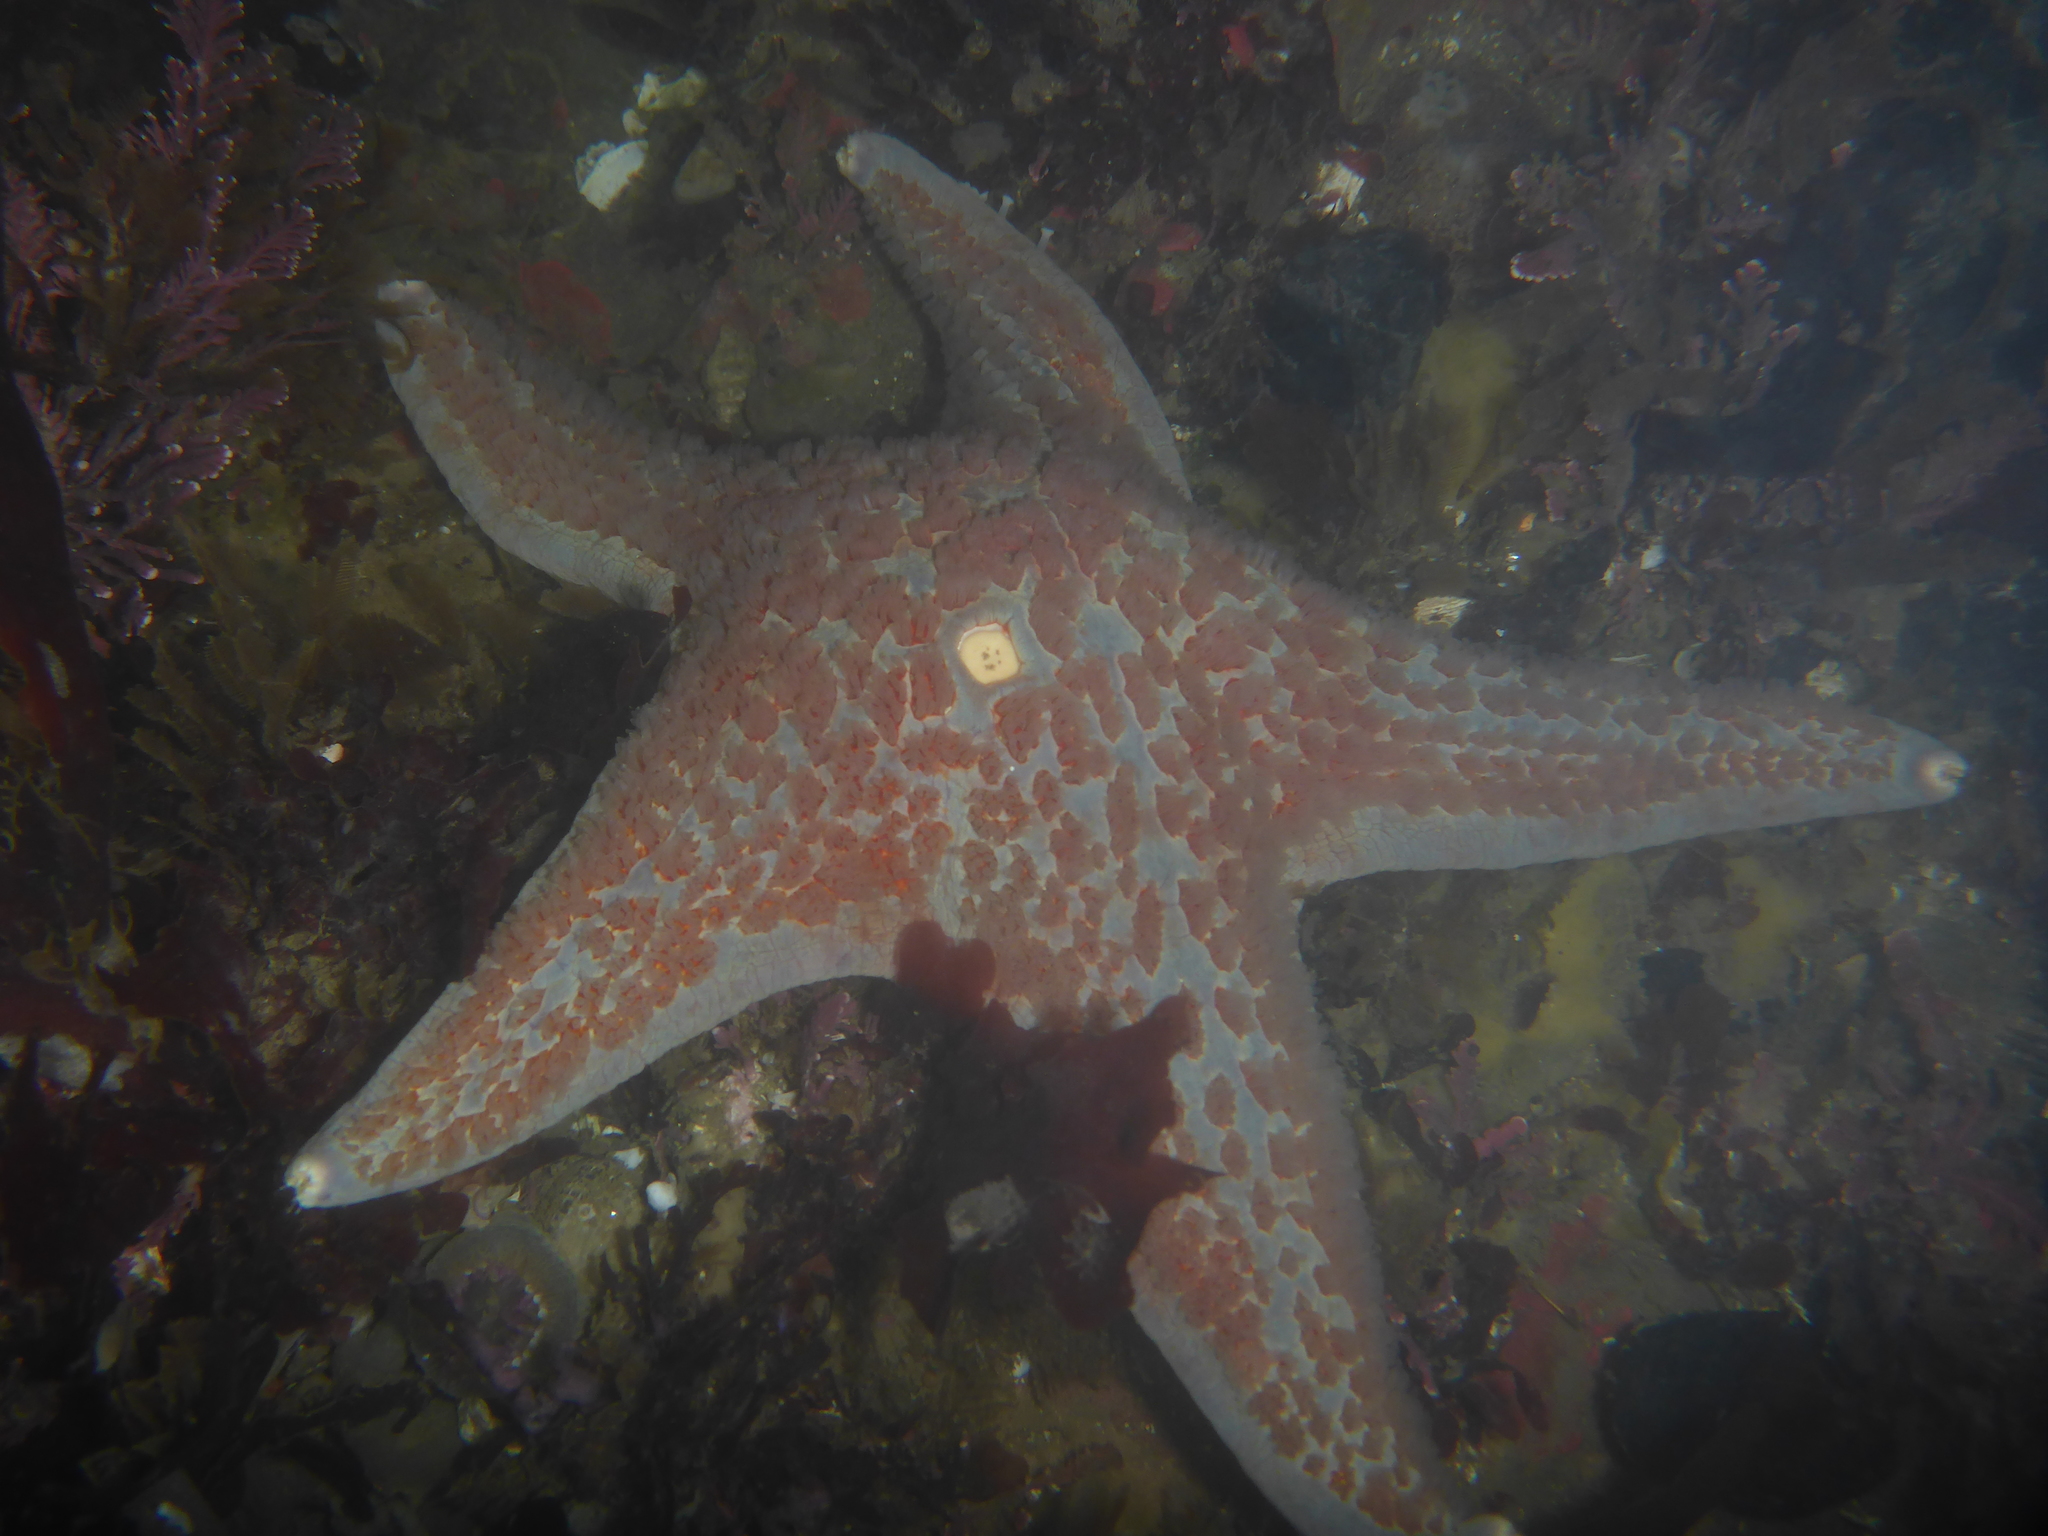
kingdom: Animalia
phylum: Echinodermata
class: Asteroidea
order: Valvatida
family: Asteropseidae
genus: Dermasterias
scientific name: Dermasterias imbricata
